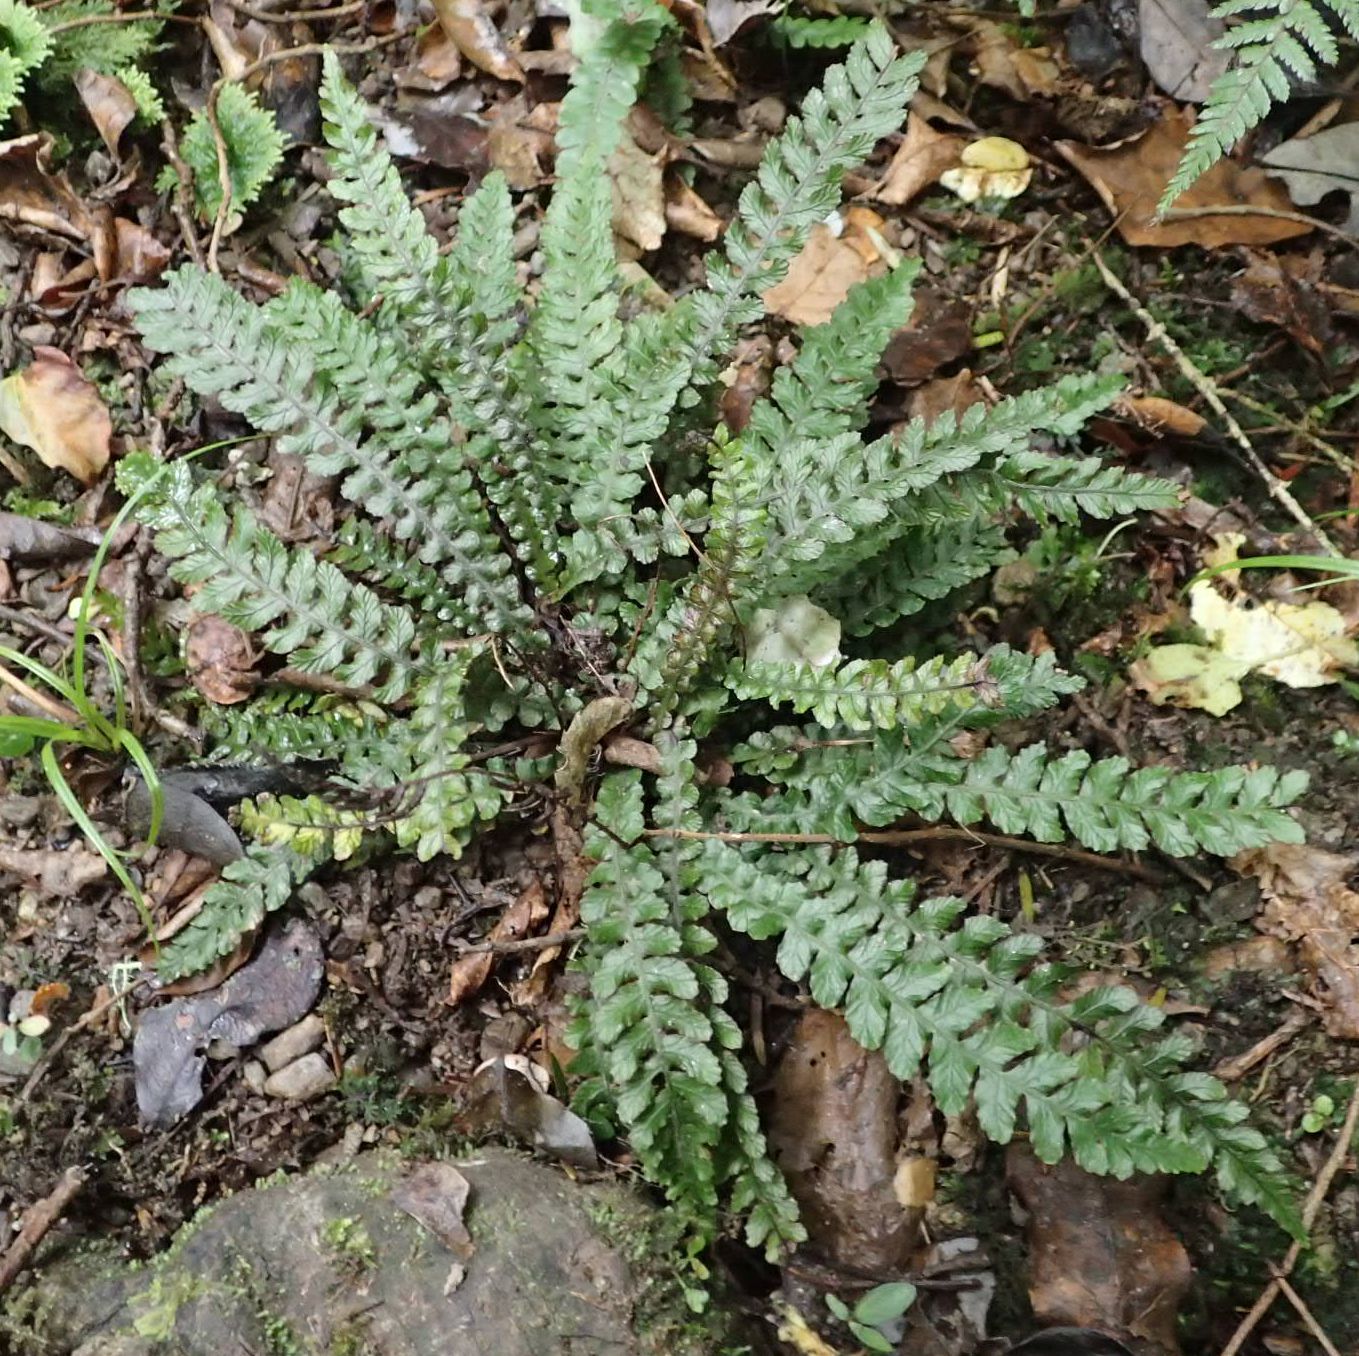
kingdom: Plantae
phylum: Tracheophyta
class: Polypodiopsida
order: Polypodiales
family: Blechnaceae
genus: Austroblechnum
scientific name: Austroblechnum membranaceum
